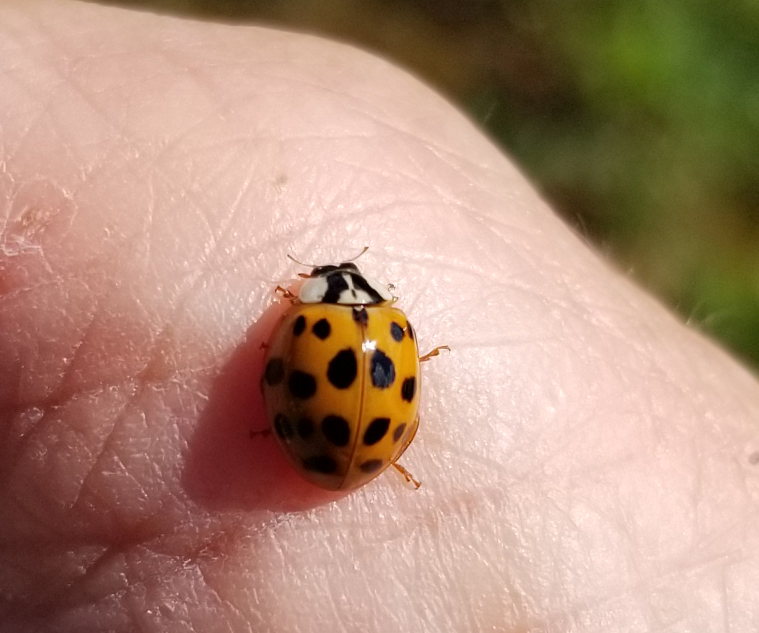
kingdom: Animalia
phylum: Arthropoda
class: Insecta
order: Coleoptera
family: Coccinellidae
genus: Harmonia
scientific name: Harmonia axyridis
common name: Harlequin ladybird
